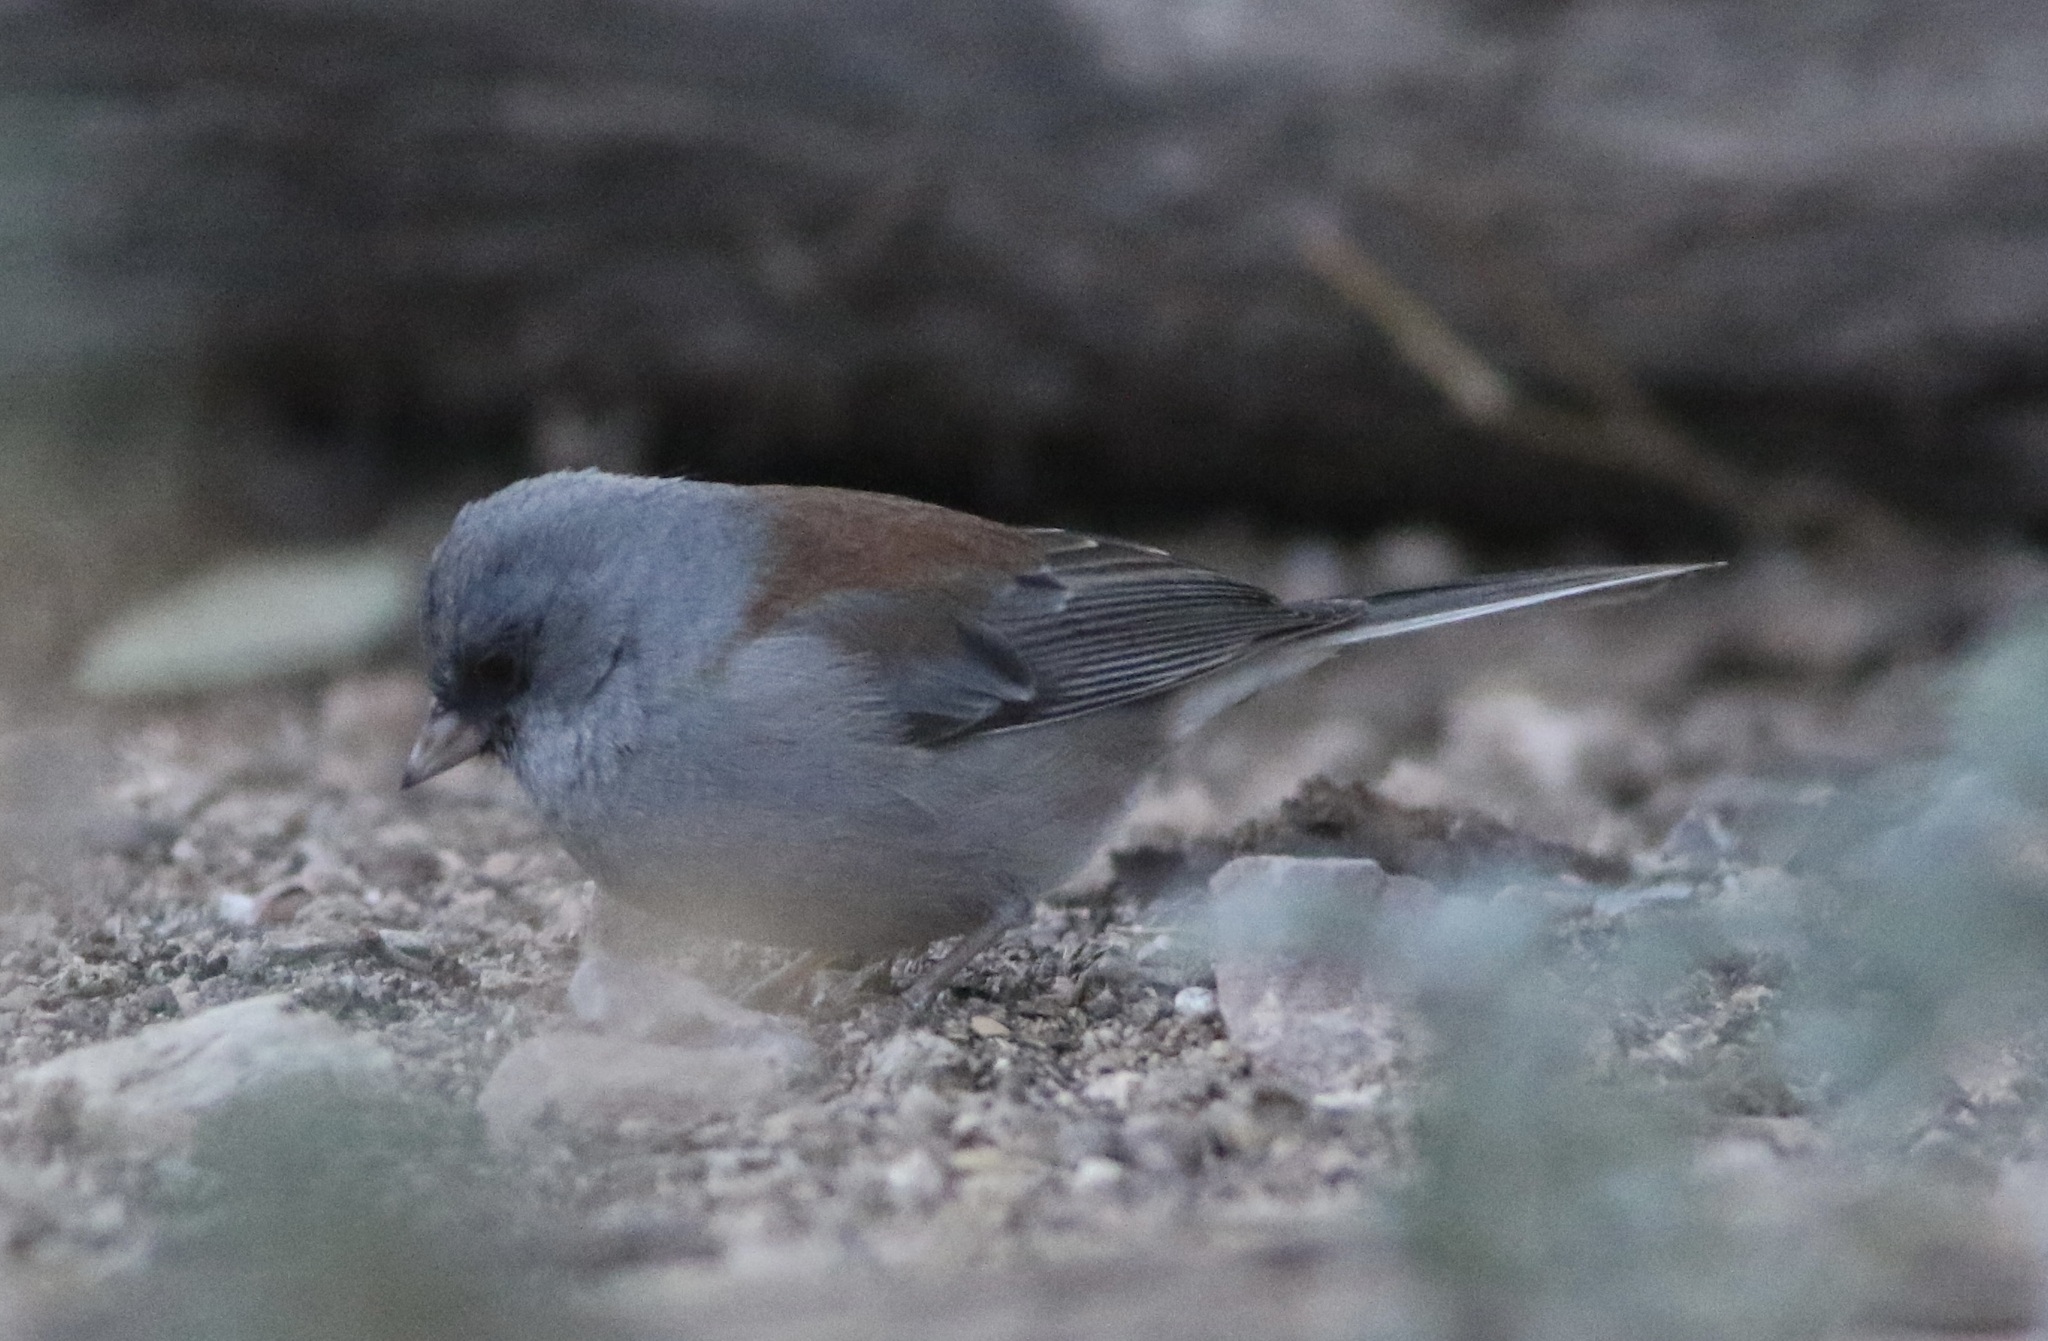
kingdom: Animalia
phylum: Chordata
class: Aves
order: Passeriformes
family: Passerellidae
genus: Junco
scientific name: Junco hyemalis
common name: Dark-eyed junco
